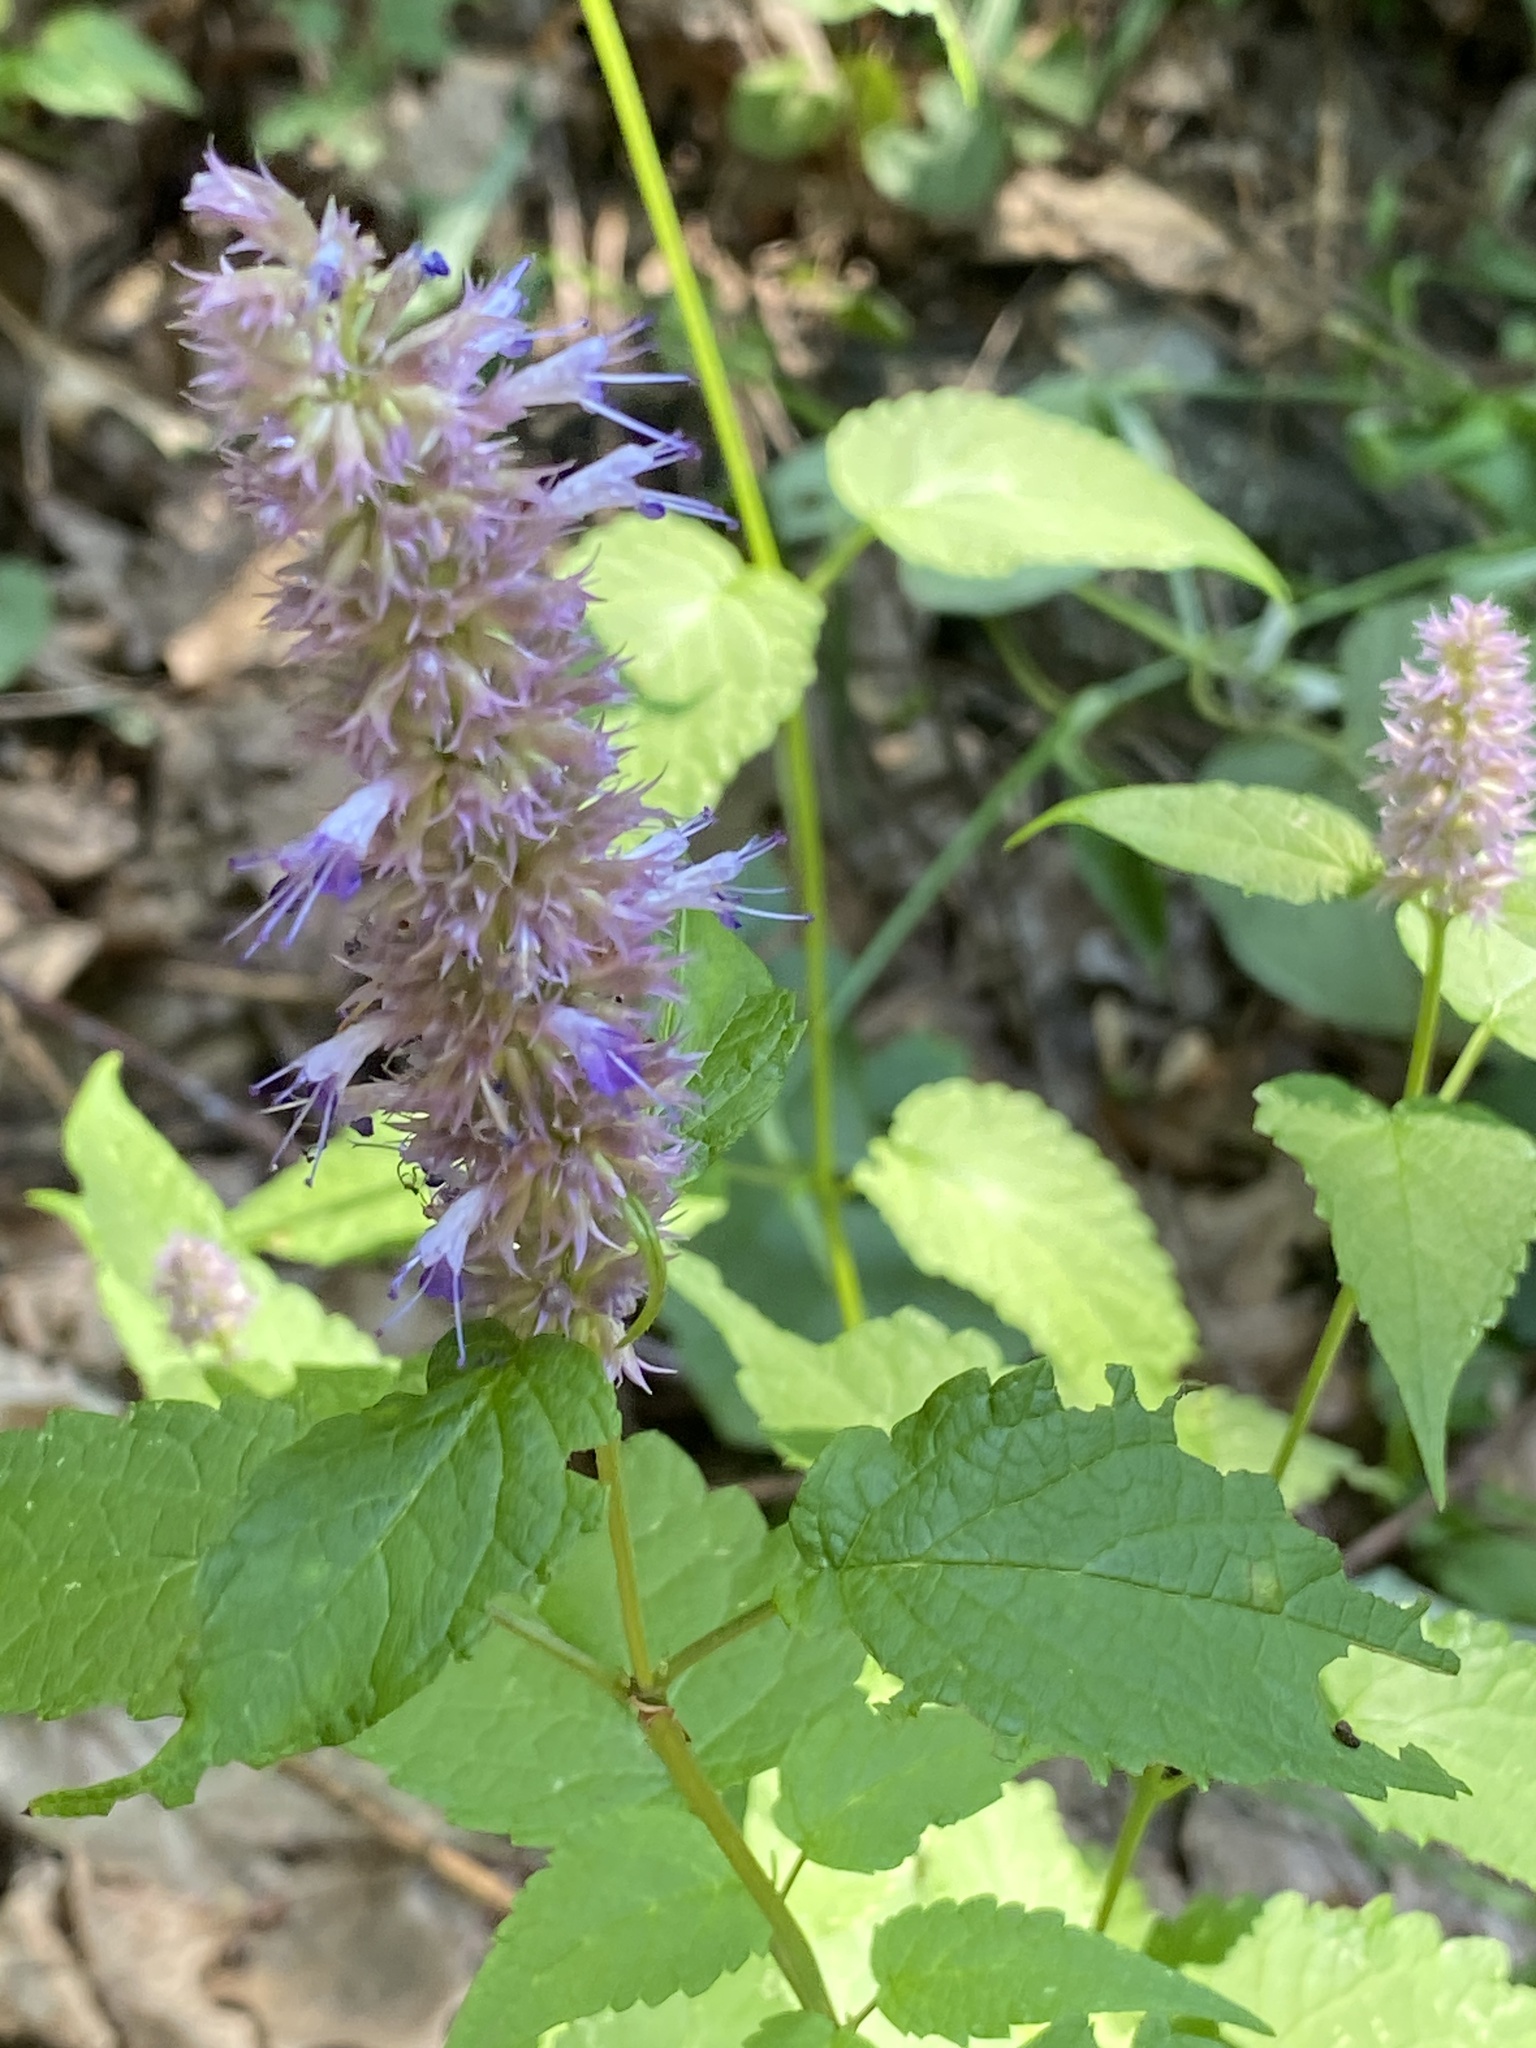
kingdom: Plantae
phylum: Tracheophyta
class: Magnoliopsida
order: Lamiales
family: Lamiaceae
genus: Agastache
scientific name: Agastache foeniculum
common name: Anise hyssop
